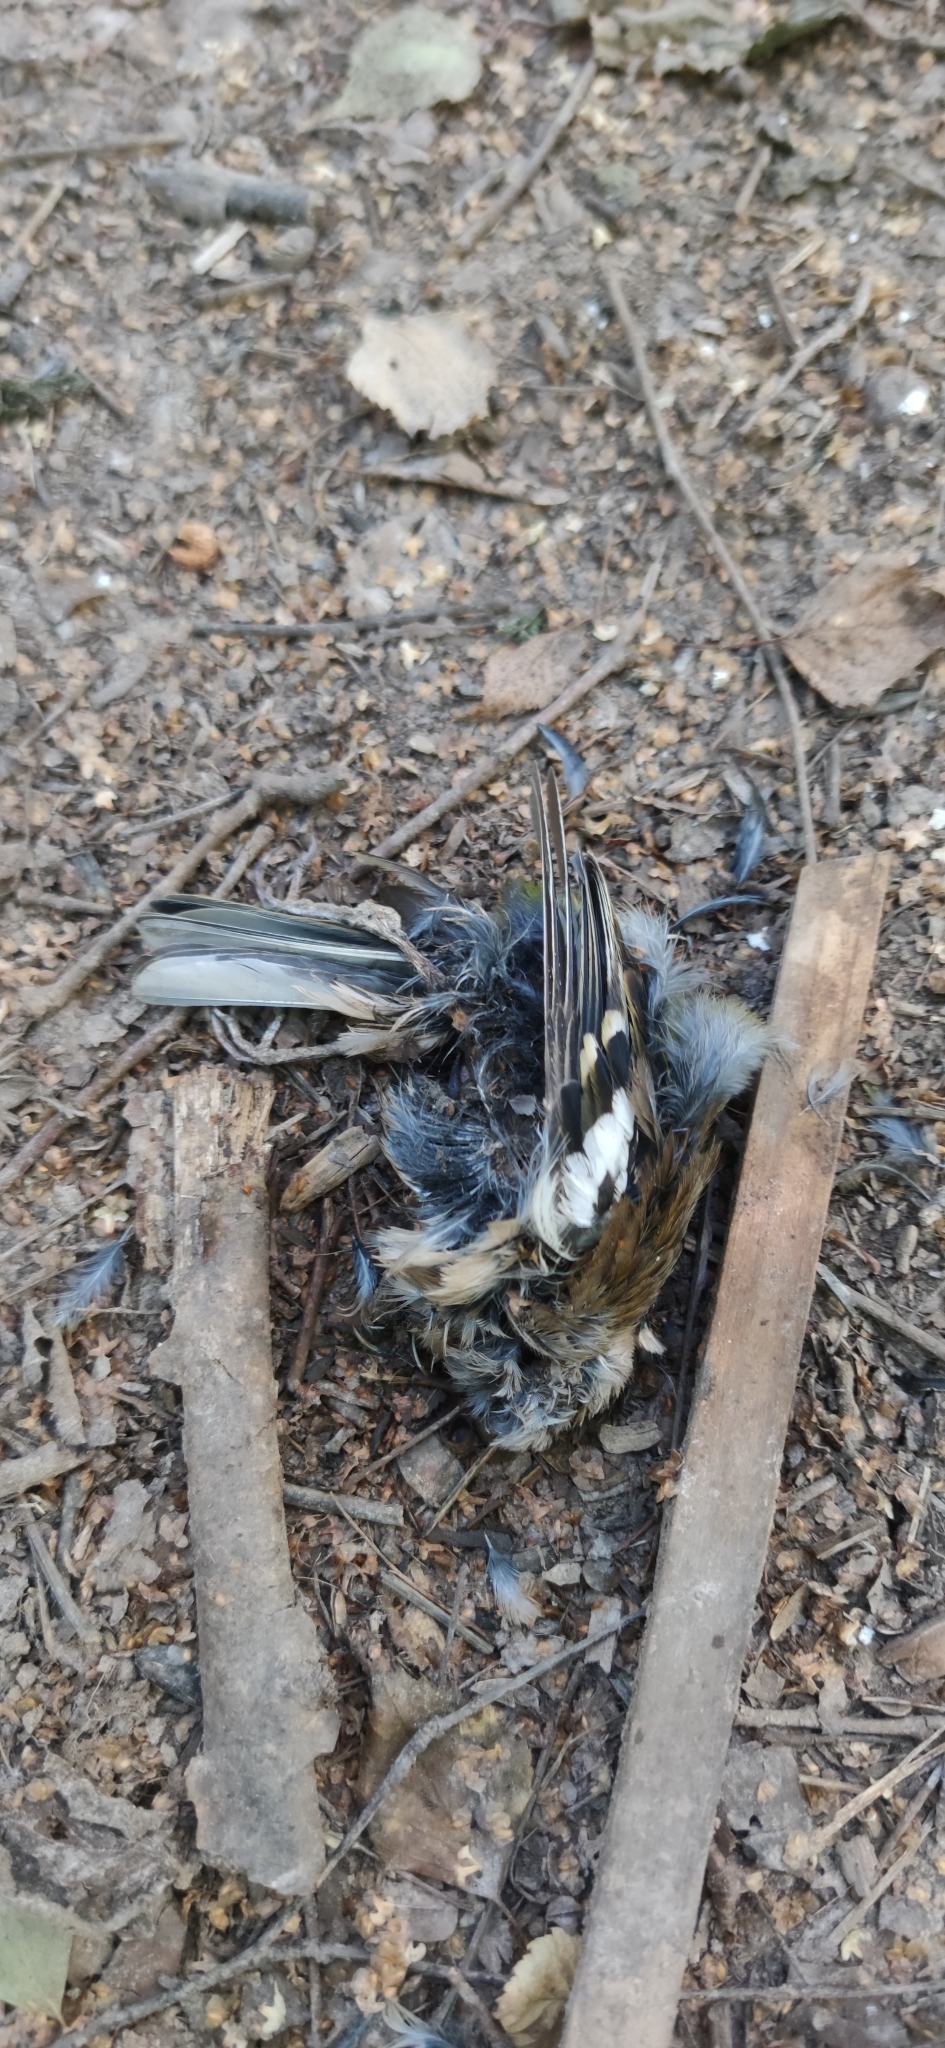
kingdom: Animalia
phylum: Chordata
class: Aves
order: Passeriformes
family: Fringillidae
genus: Fringilla
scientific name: Fringilla coelebs
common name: Common chaffinch
